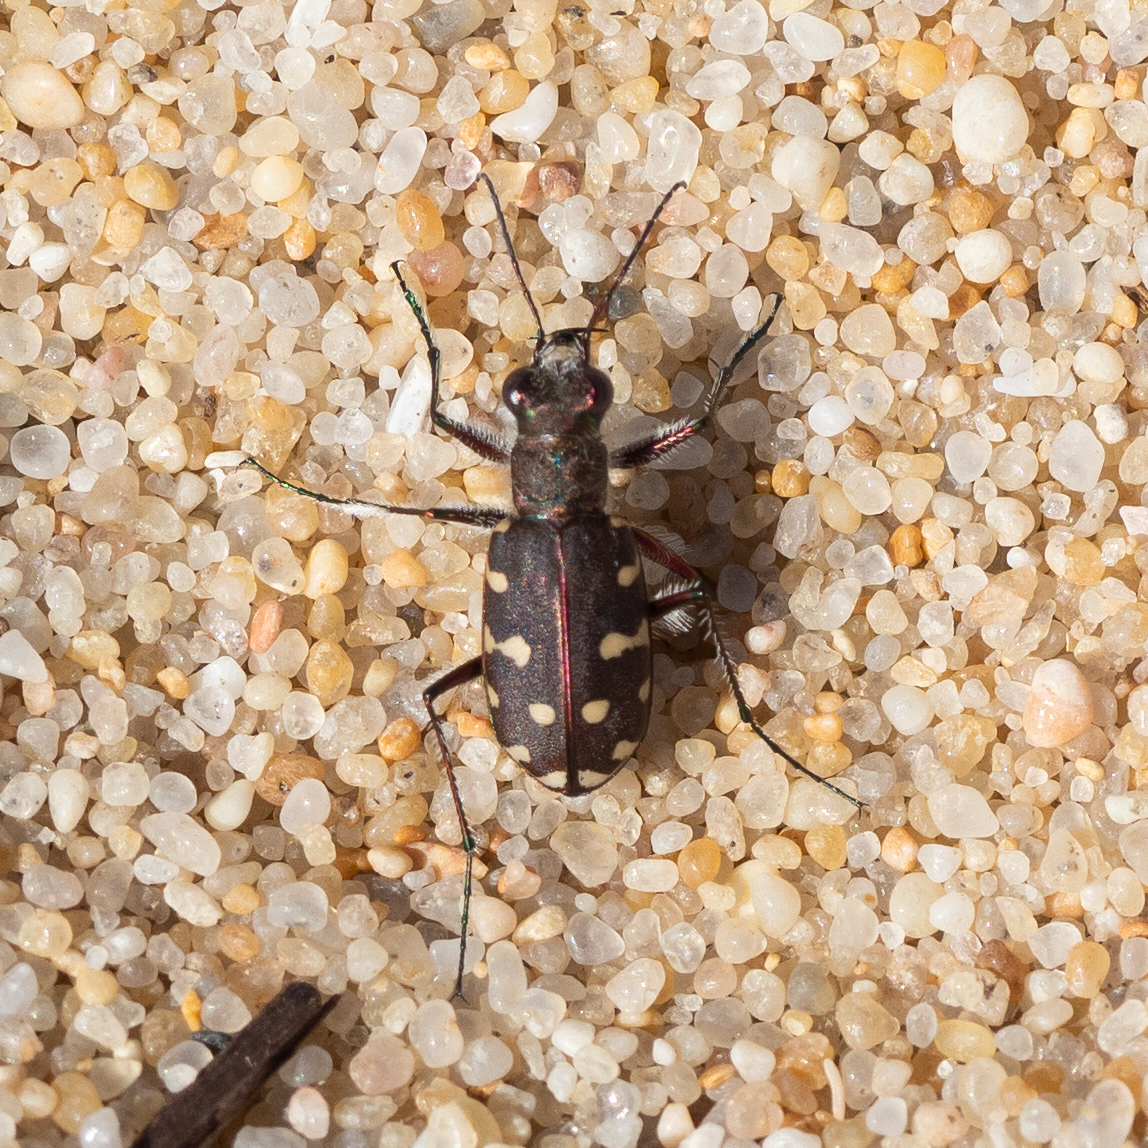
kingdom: Animalia
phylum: Arthropoda
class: Insecta
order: Coleoptera
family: Carabidae
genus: Cicindela
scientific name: Cicindela littoralis
